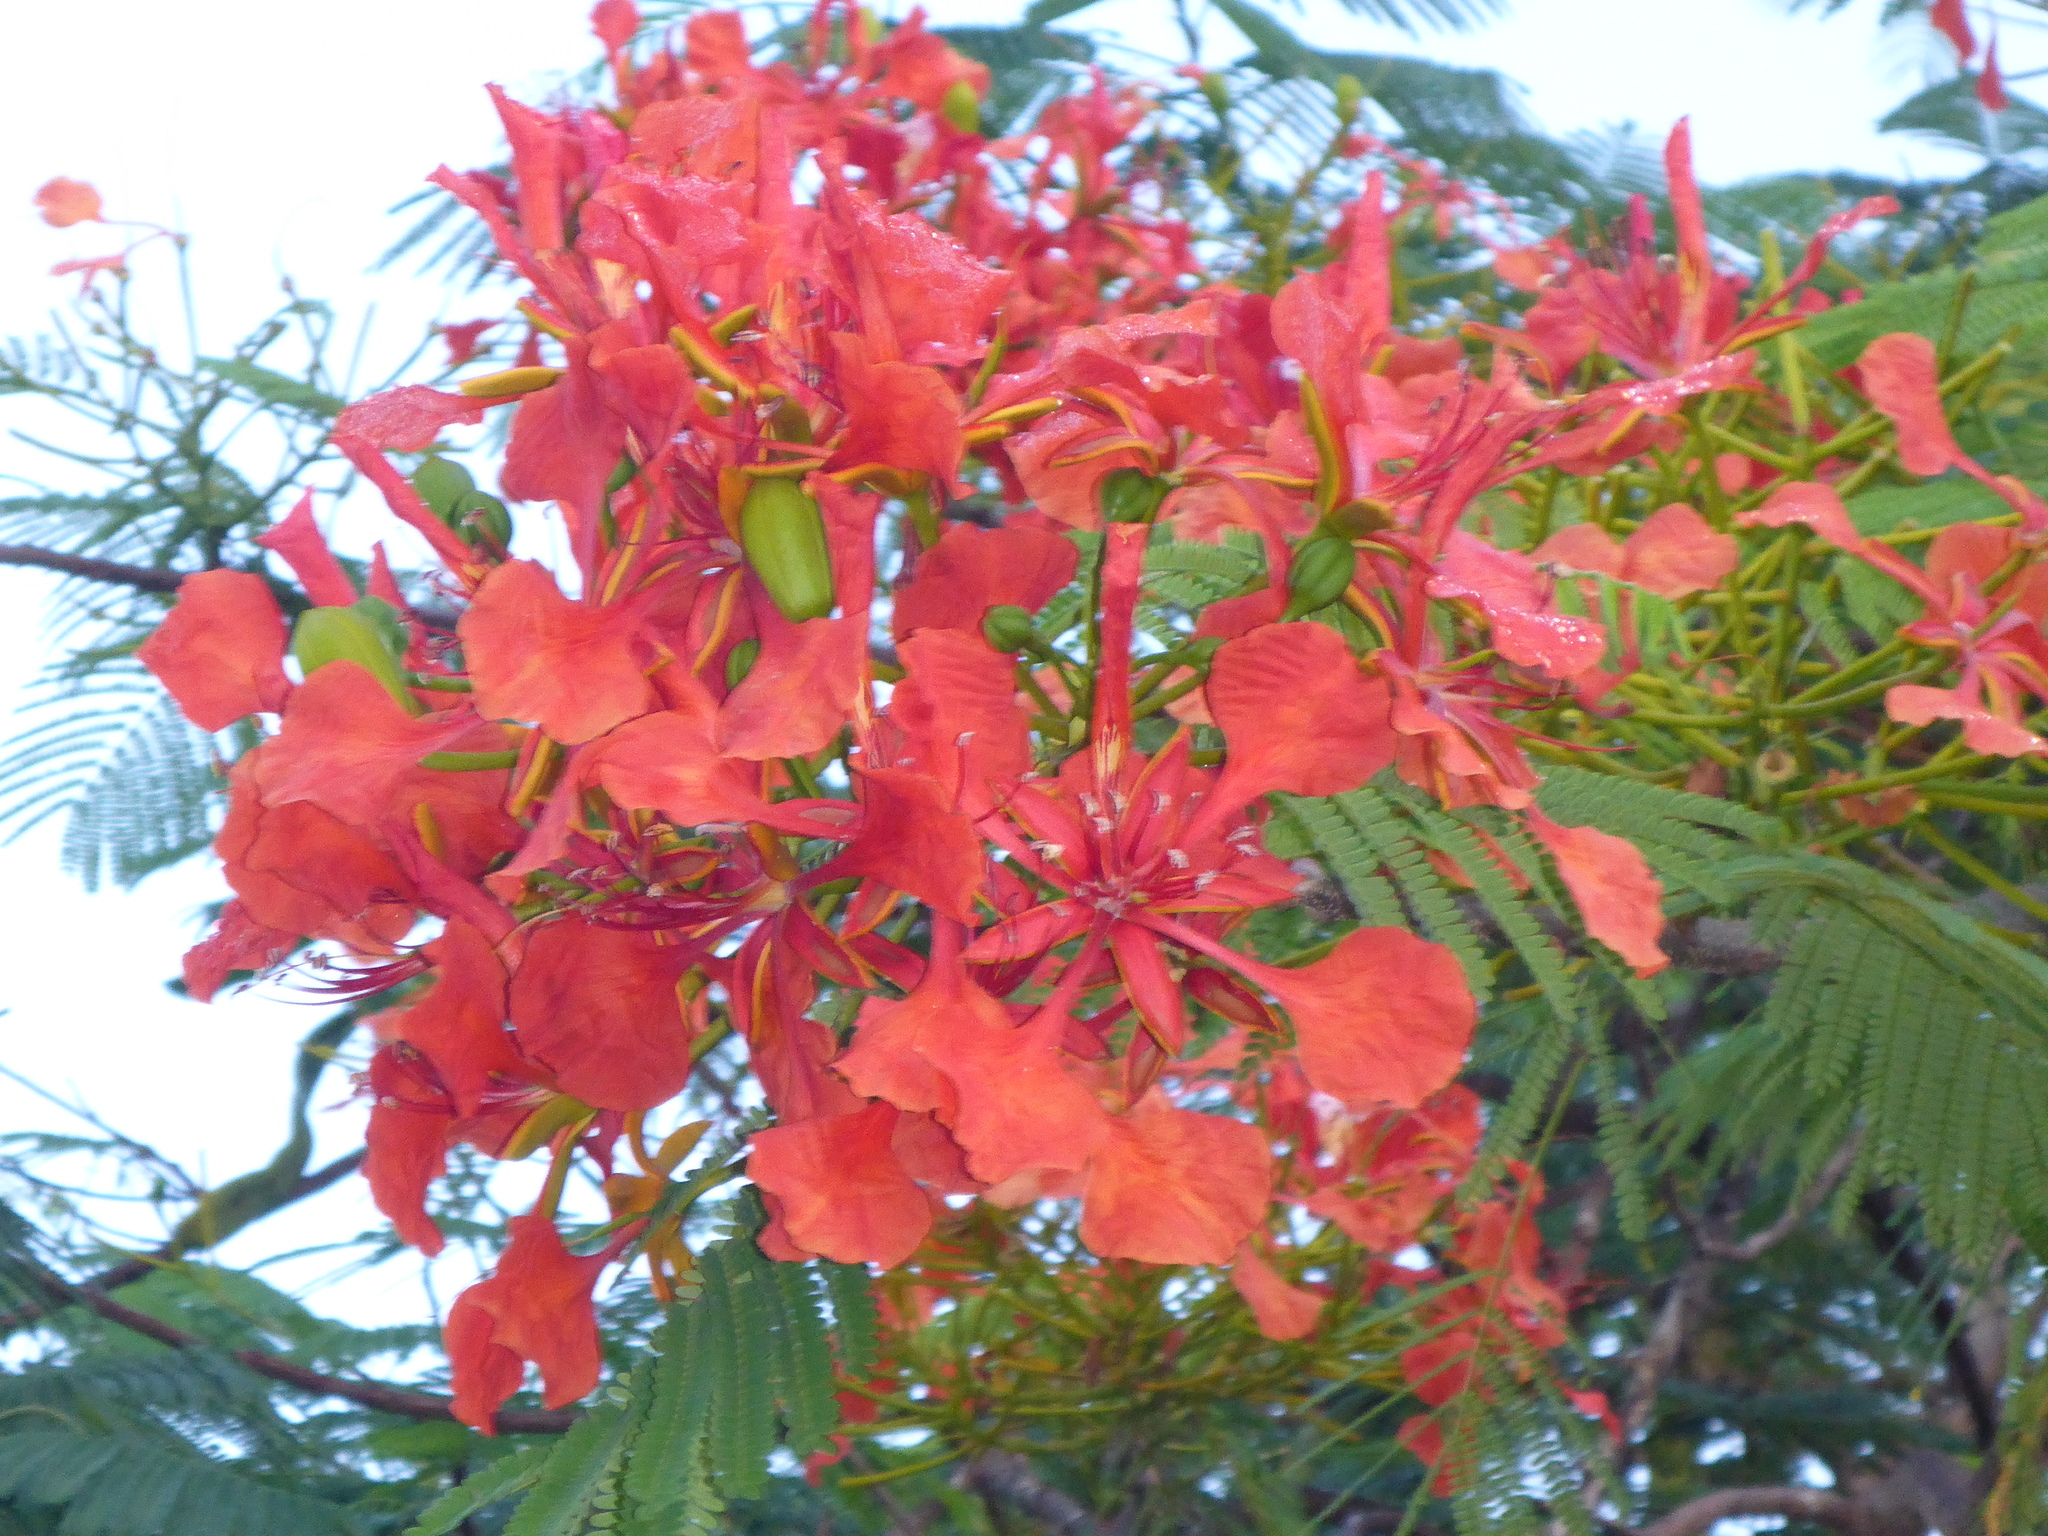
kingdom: Plantae
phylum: Tracheophyta
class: Magnoliopsida
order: Fabales
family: Fabaceae
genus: Delonix
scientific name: Delonix regia
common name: Royal poinciana
